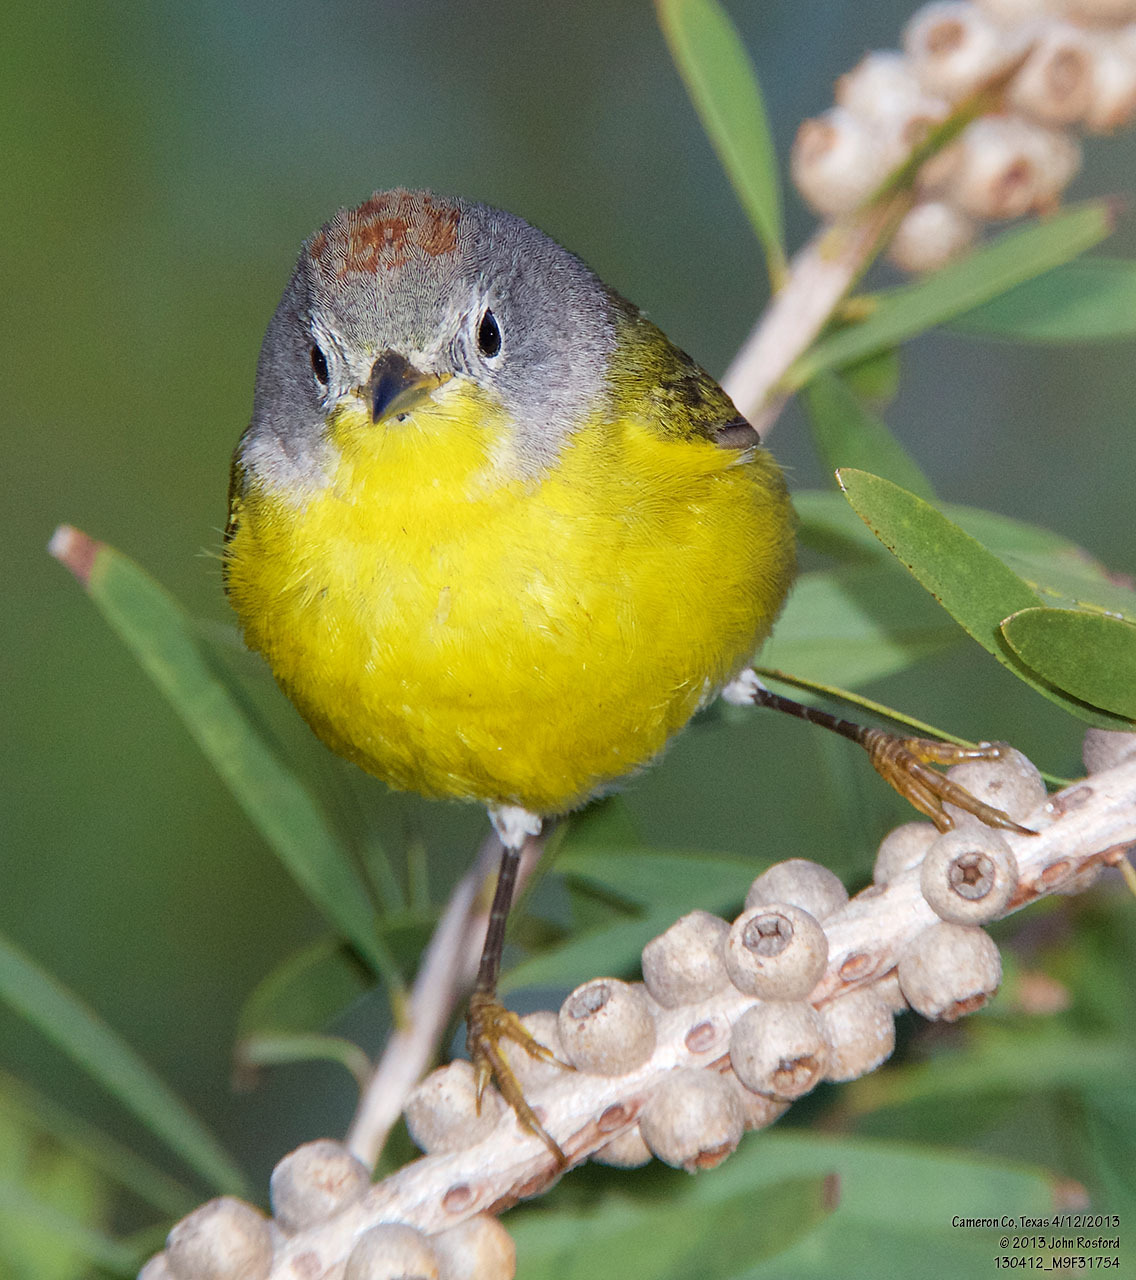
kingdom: Animalia
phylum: Chordata
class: Aves
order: Passeriformes
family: Parulidae
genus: Leiothlypis
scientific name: Leiothlypis ruficapilla
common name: Nashville warbler
